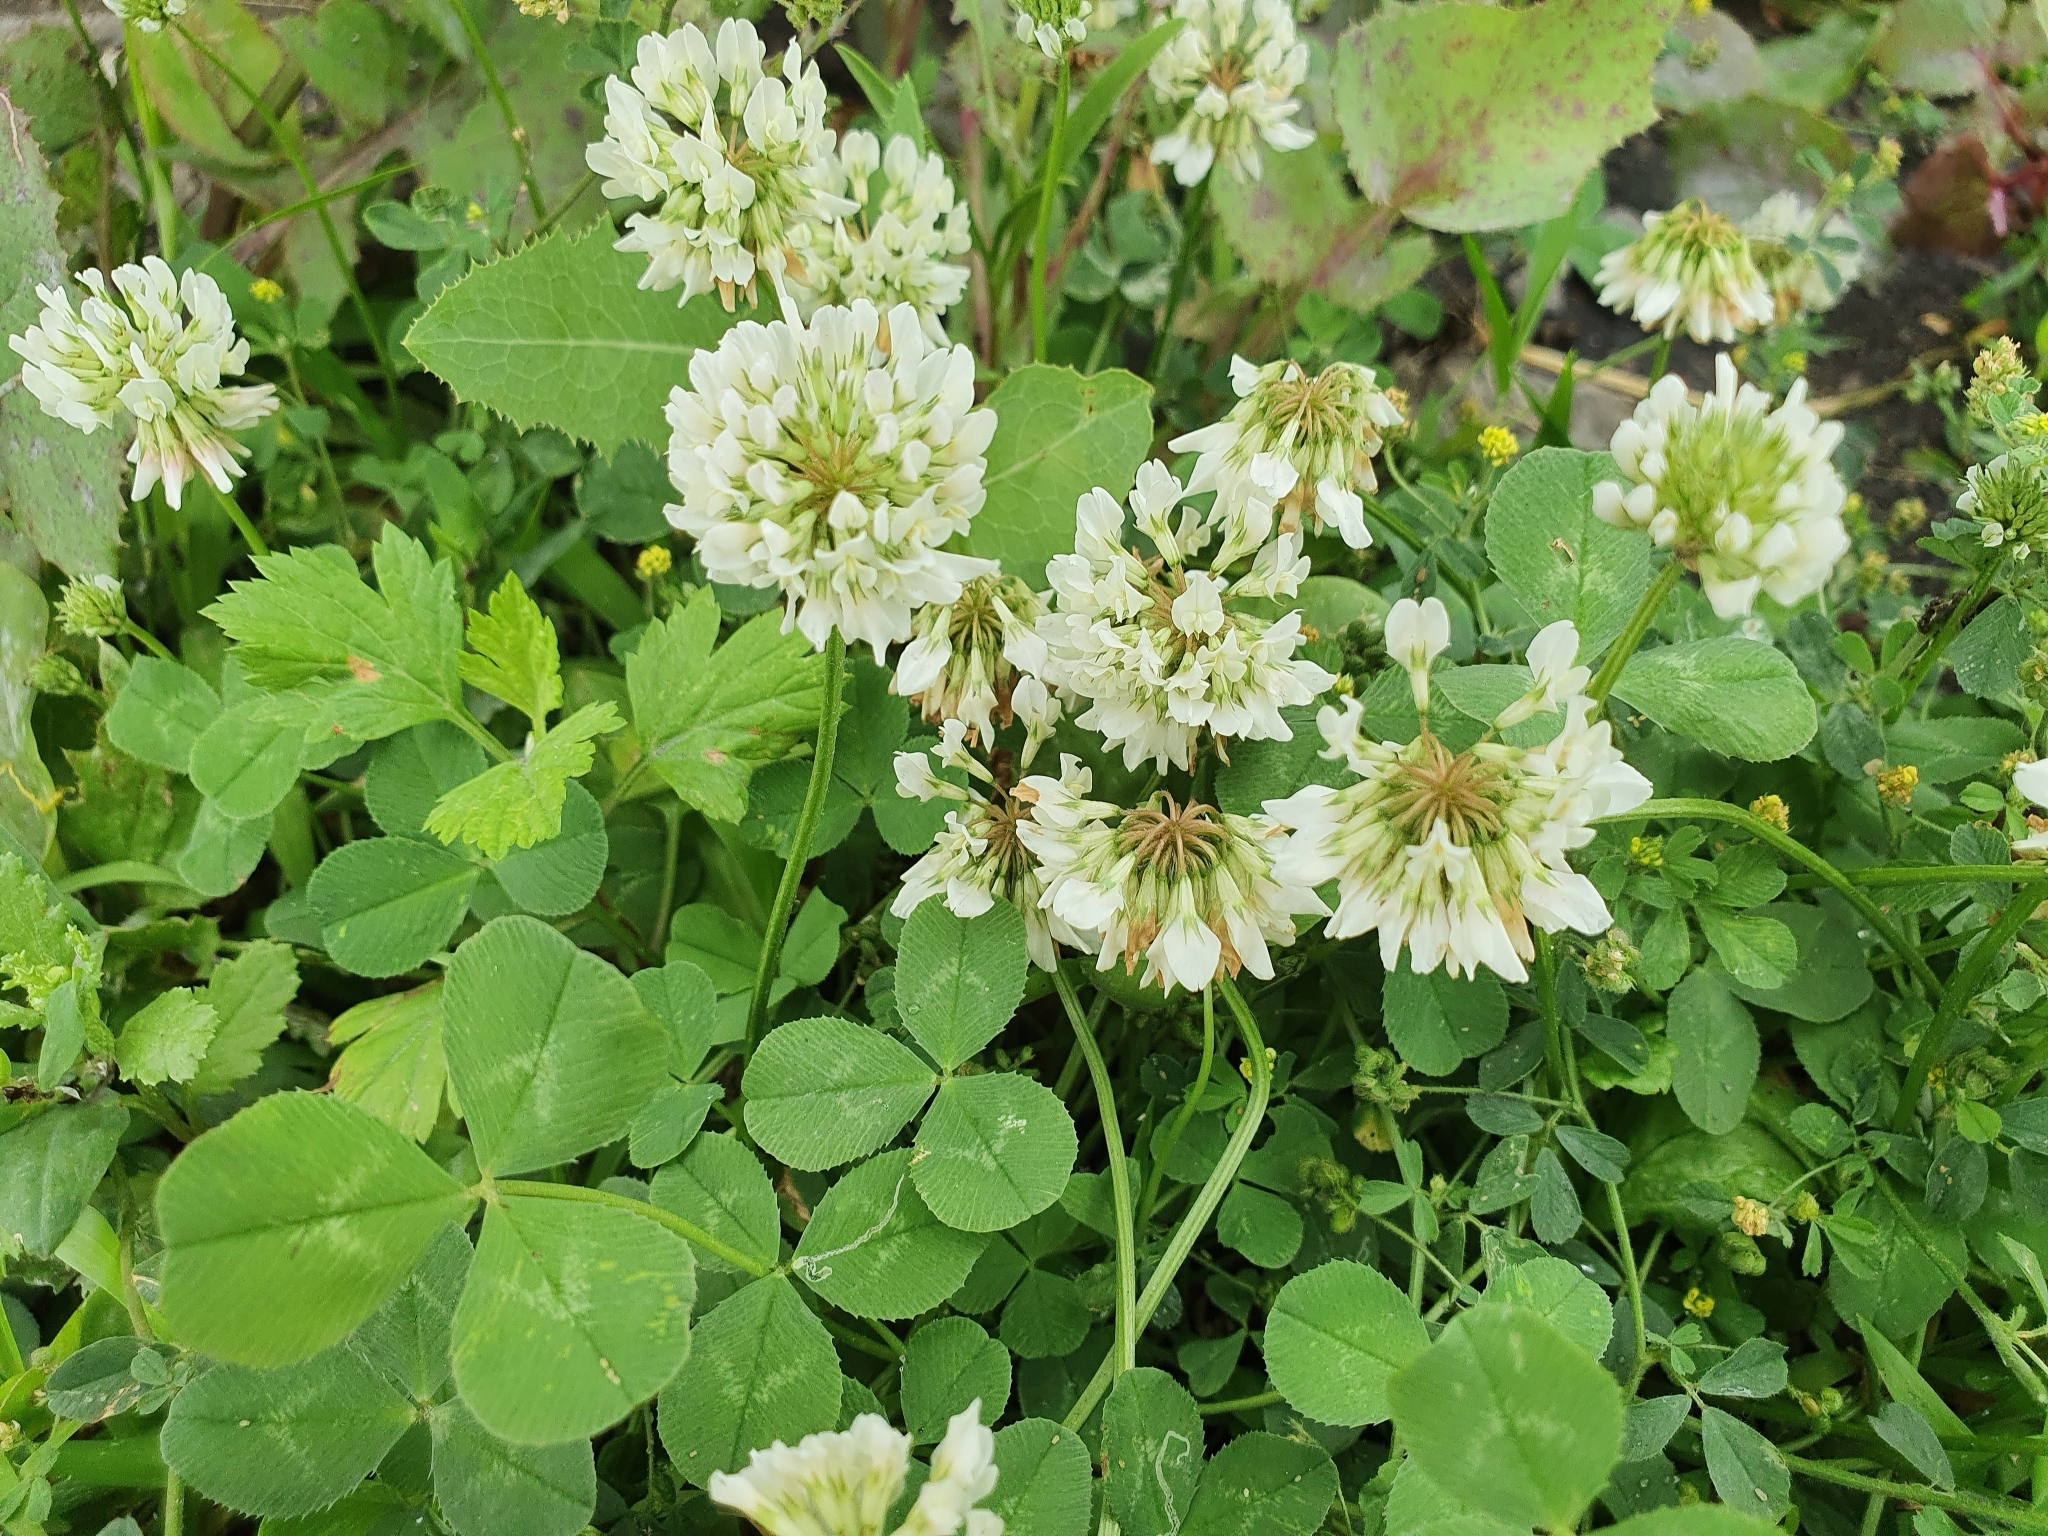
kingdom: Plantae
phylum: Tracheophyta
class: Magnoliopsida
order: Fabales
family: Fabaceae
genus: Trifolium
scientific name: Trifolium repens
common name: White clover
